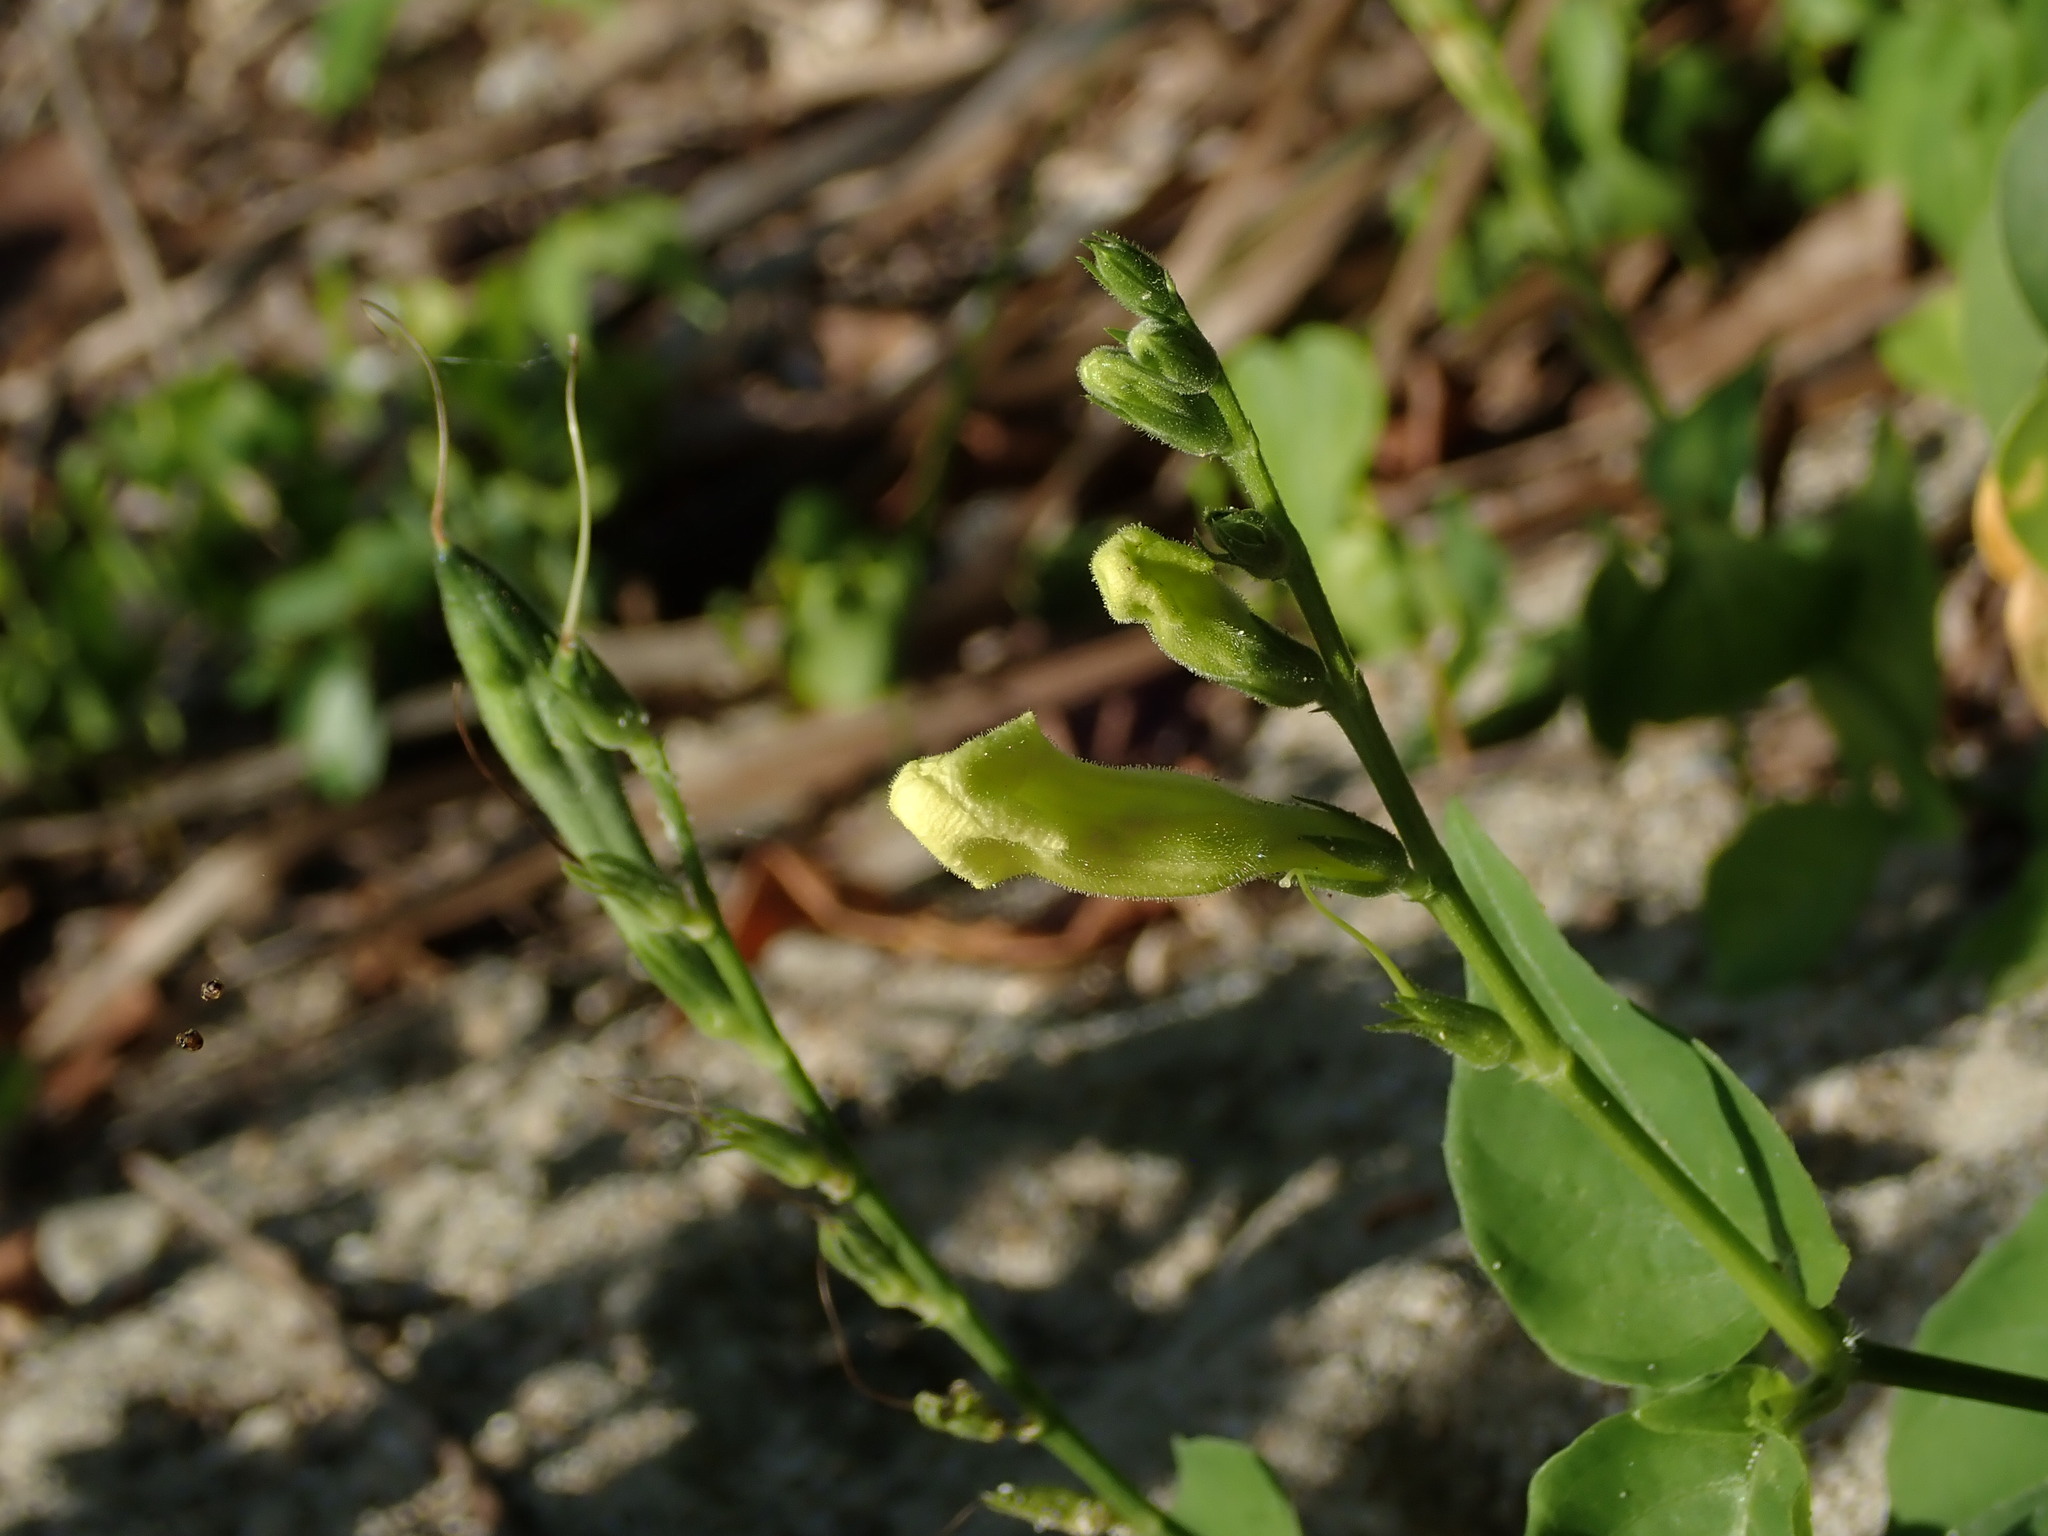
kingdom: Plantae
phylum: Tracheophyta
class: Magnoliopsida
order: Lamiales
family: Acanthaceae
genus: Asystasia
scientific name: Asystasia gangetica
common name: Chinese violet
